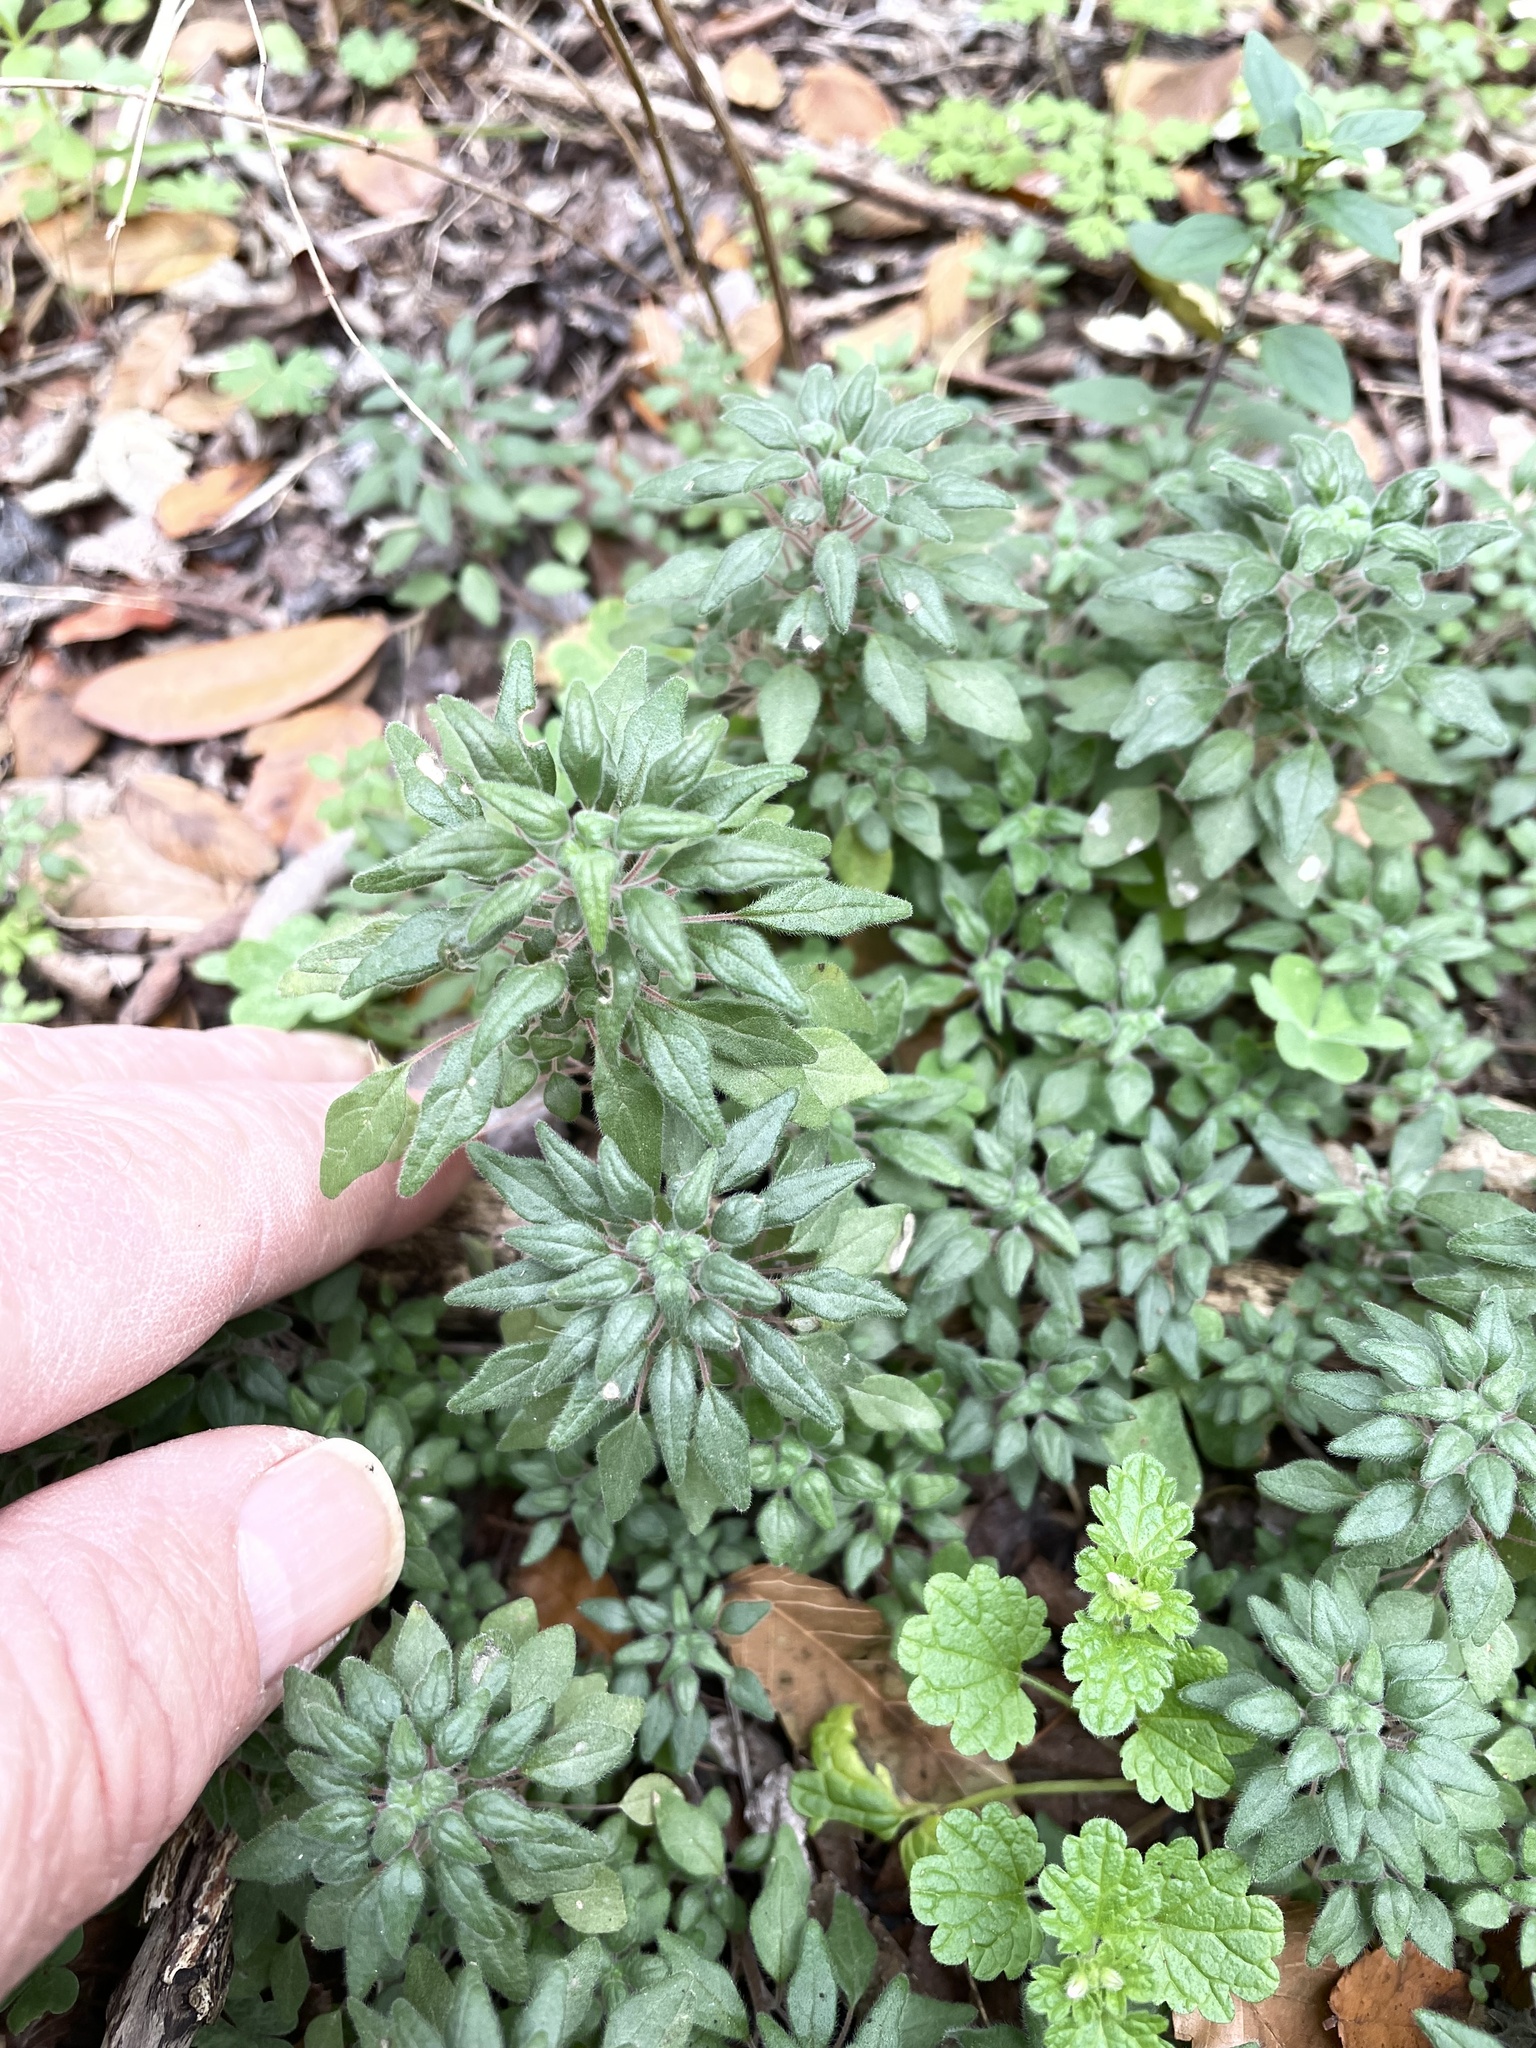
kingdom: Plantae
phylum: Tracheophyta
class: Magnoliopsida
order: Rosales
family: Urticaceae
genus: Parietaria
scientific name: Parietaria pensylvanica
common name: Pennsylvania pellitory
